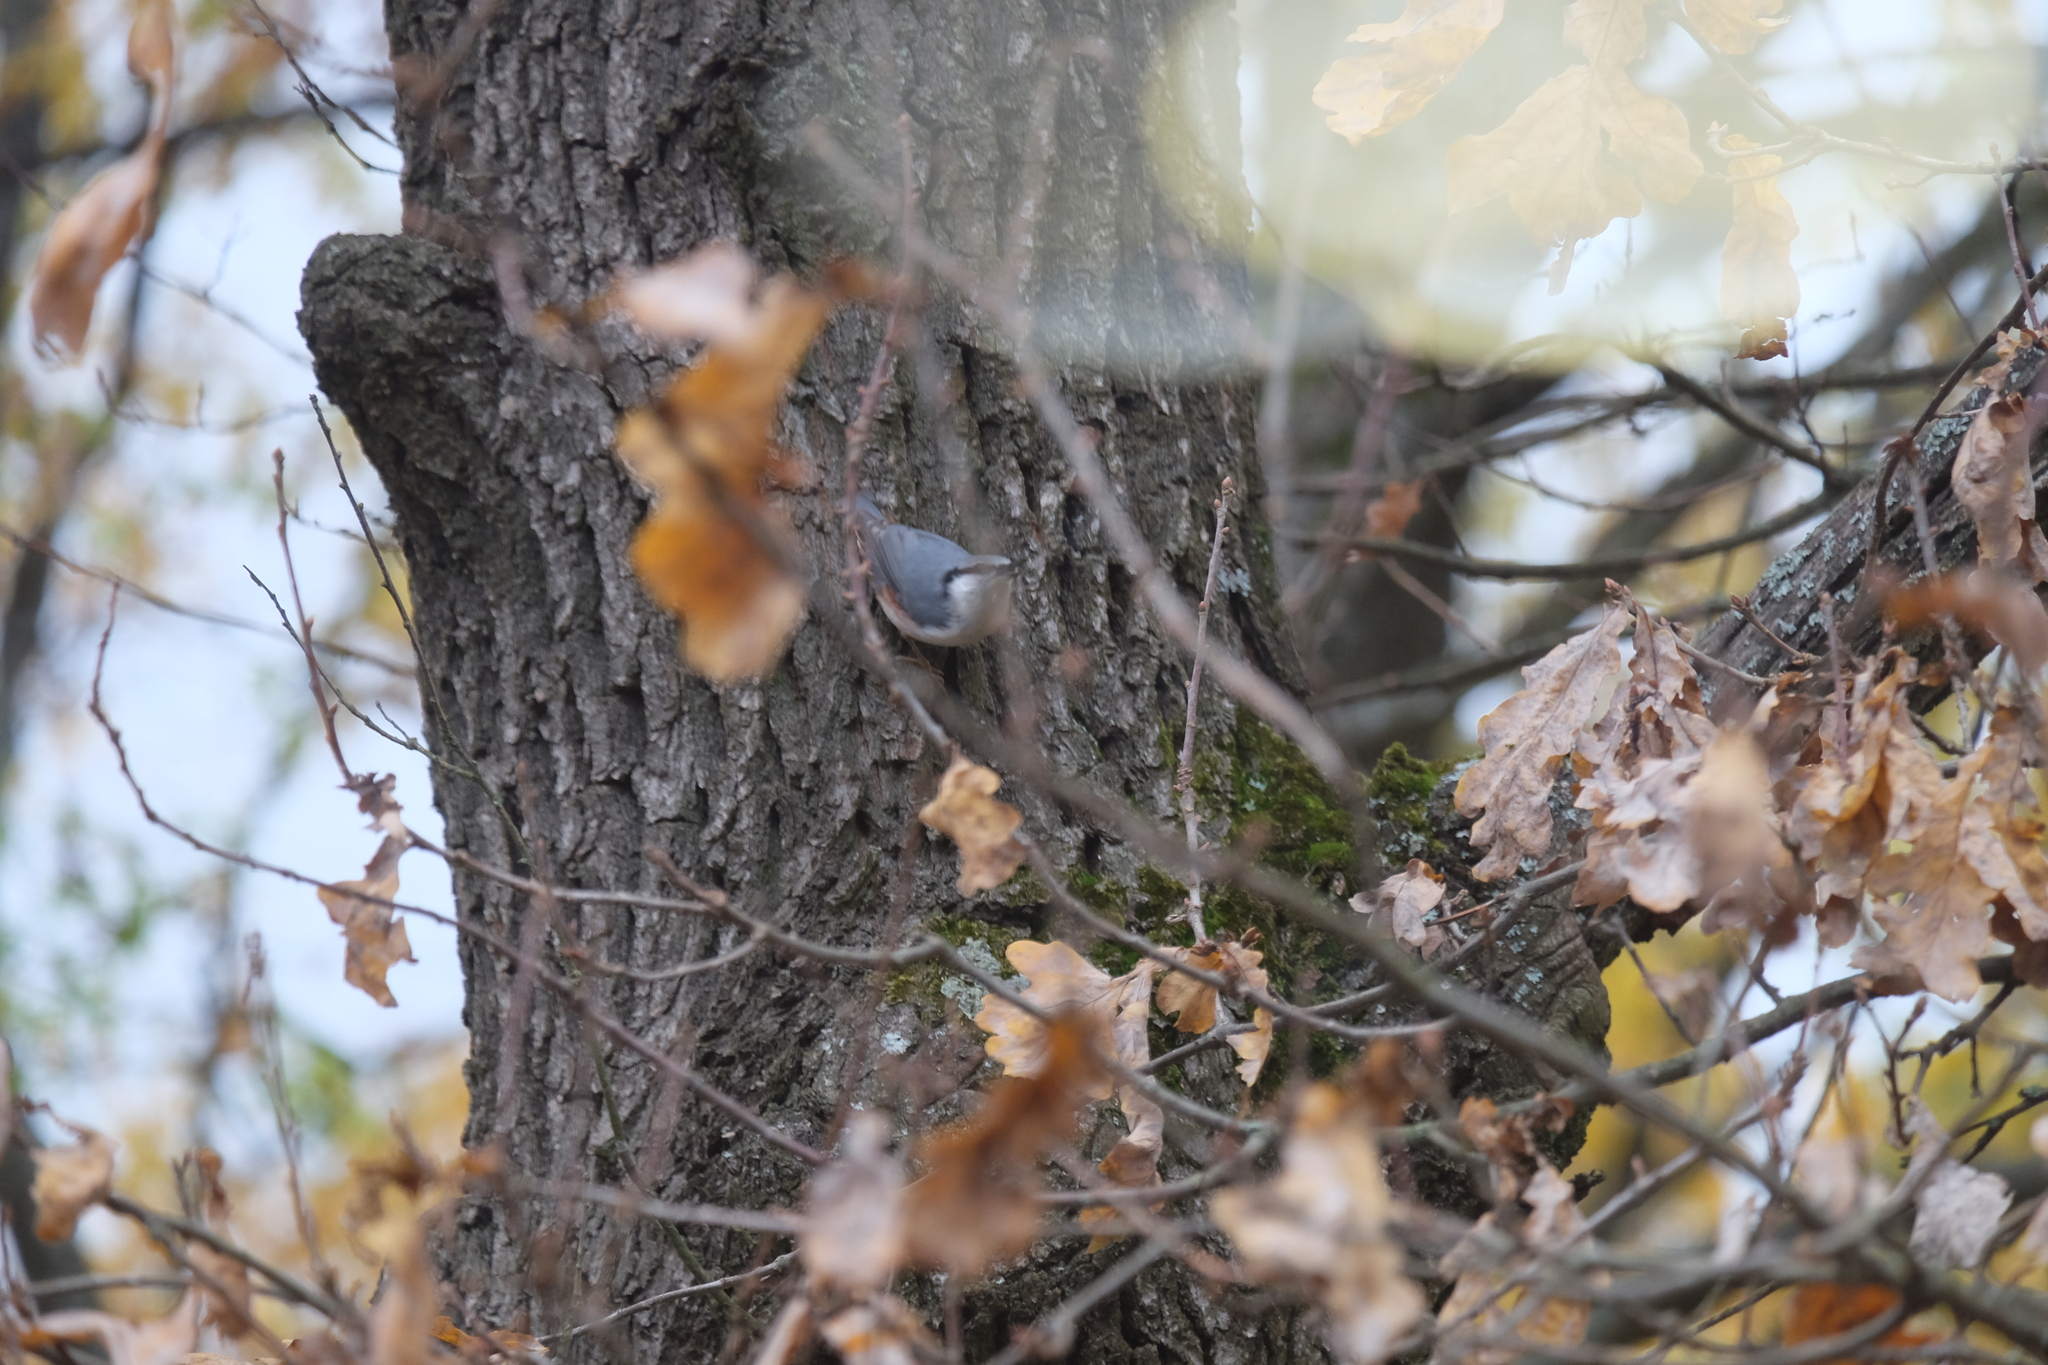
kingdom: Animalia
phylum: Chordata
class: Aves
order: Passeriformes
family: Sittidae
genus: Sitta
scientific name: Sitta europaea
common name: Eurasian nuthatch
